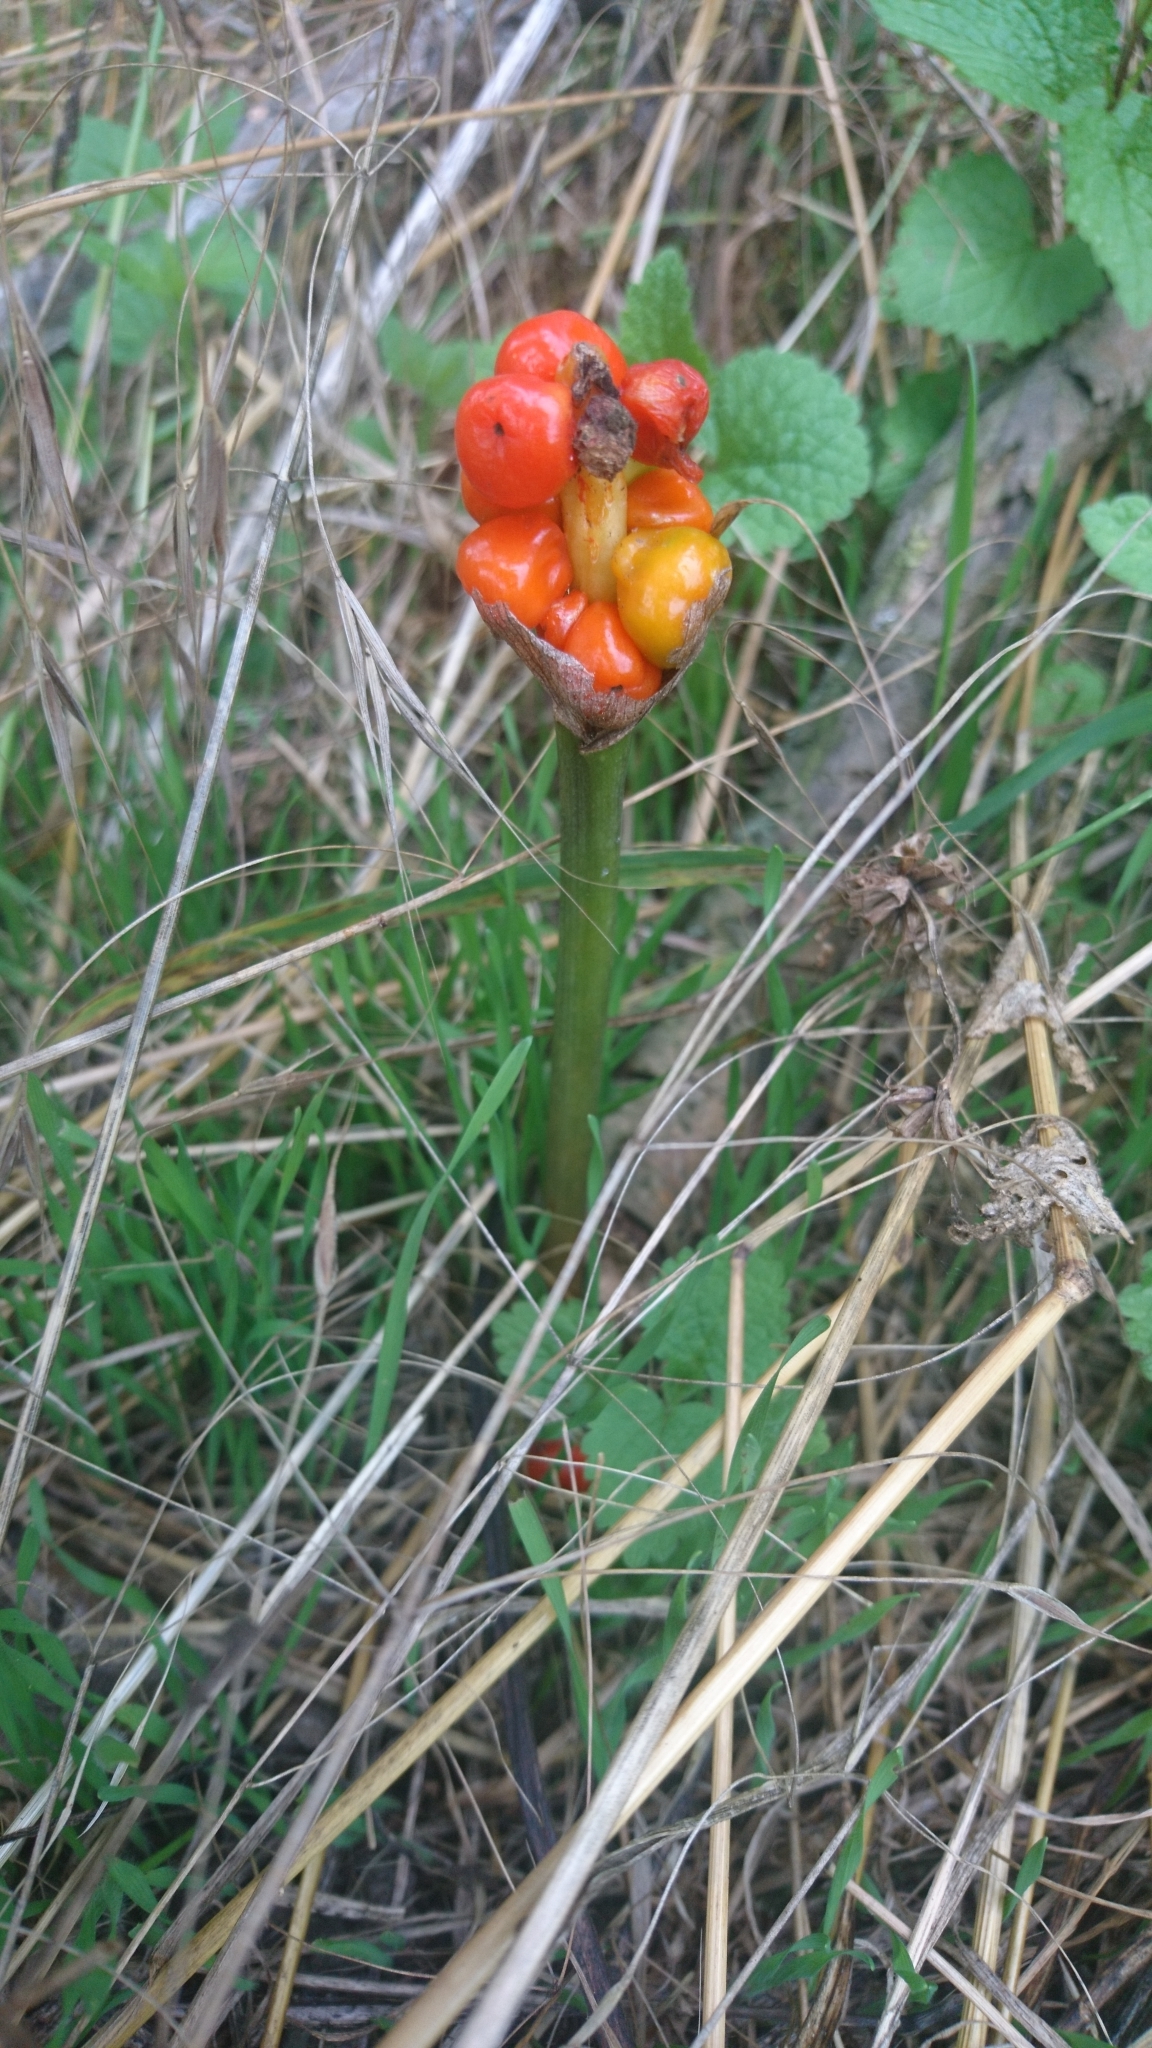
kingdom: Plantae
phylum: Tracheophyta
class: Liliopsida
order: Alismatales
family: Araceae
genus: Arum
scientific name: Arum maculatum
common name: Lords-and-ladies
